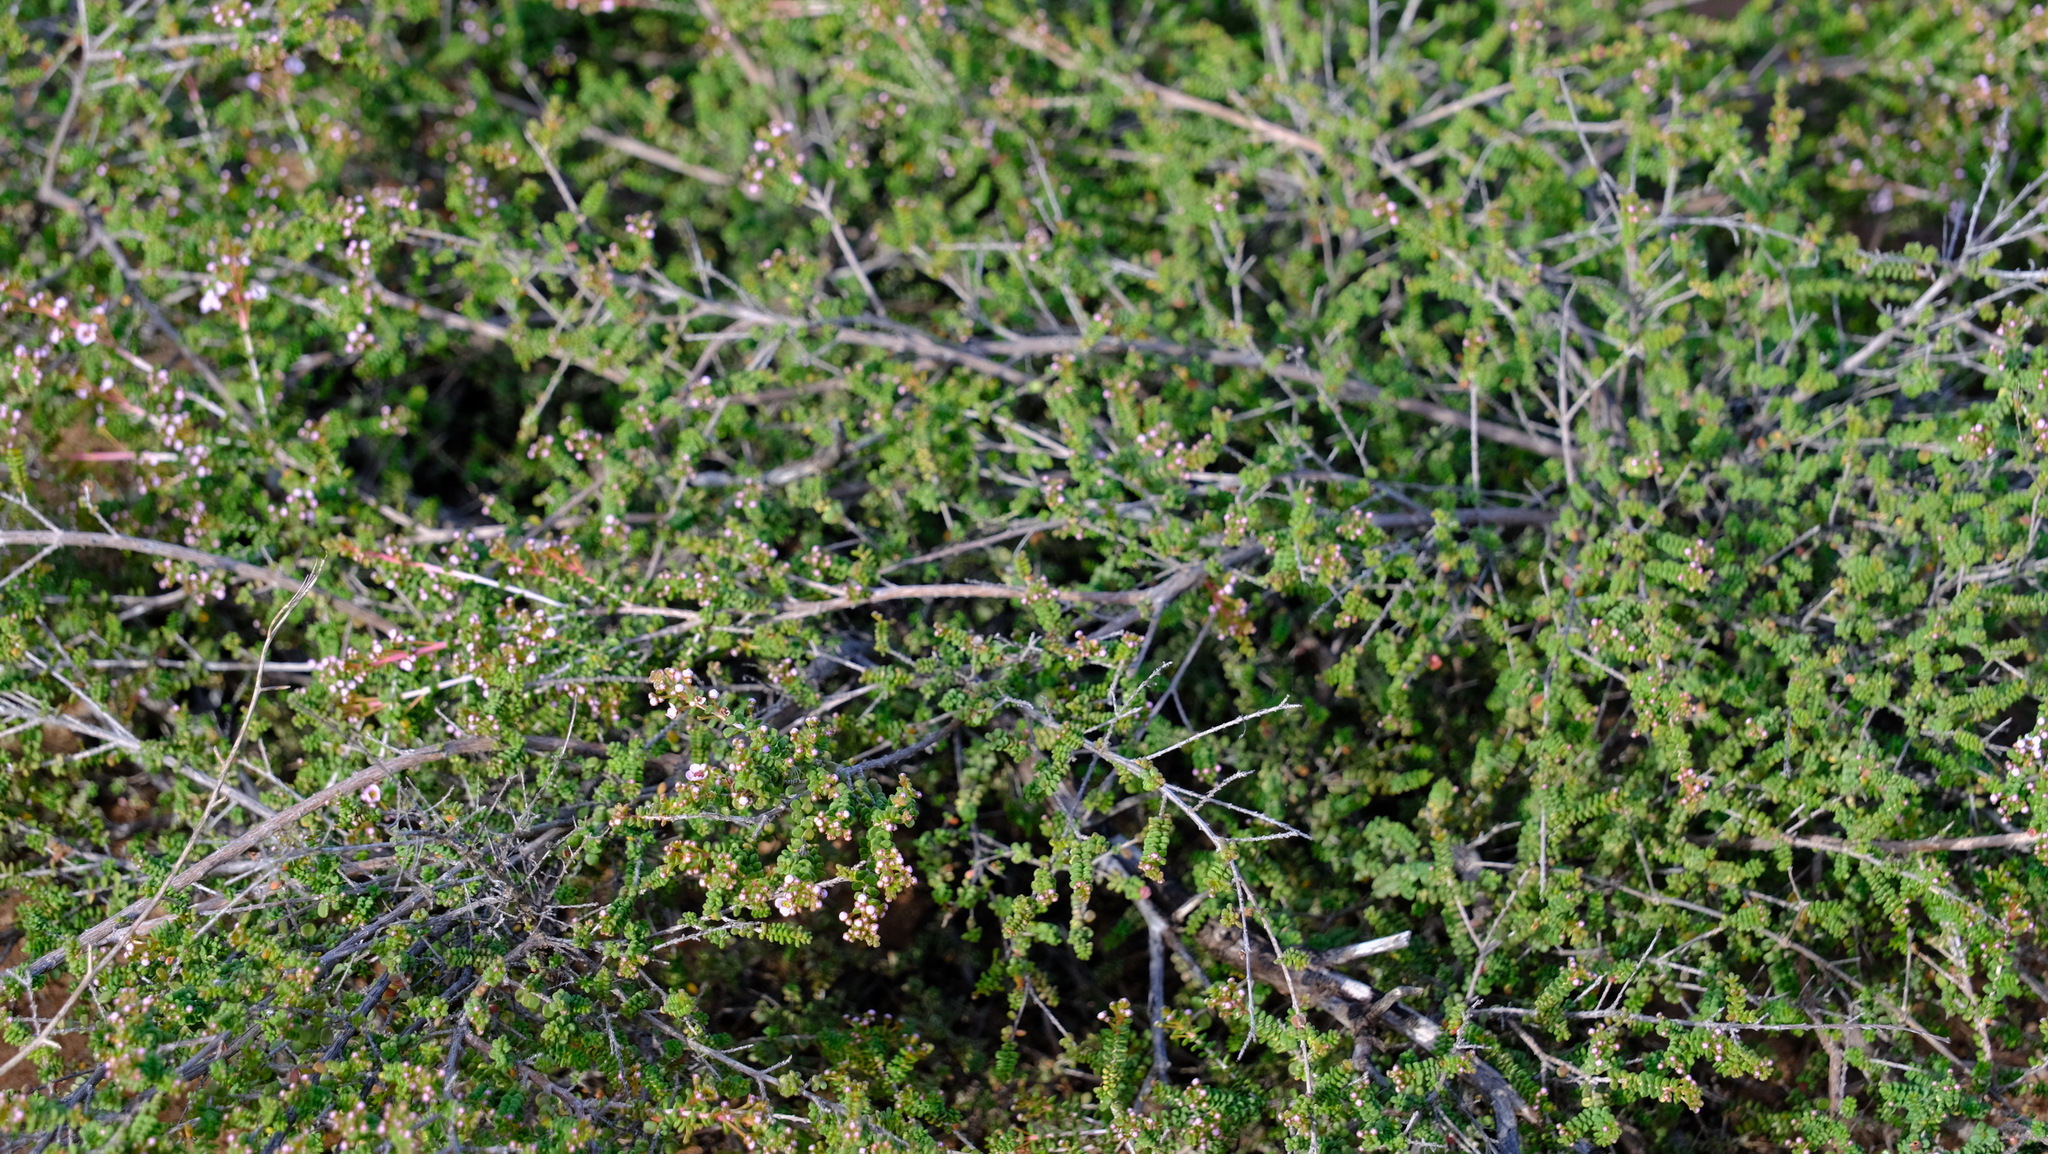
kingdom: Plantae
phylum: Tracheophyta
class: Magnoliopsida
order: Myrtales
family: Myrtaceae
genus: Thryptomene
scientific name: Thryptomene denticulata
